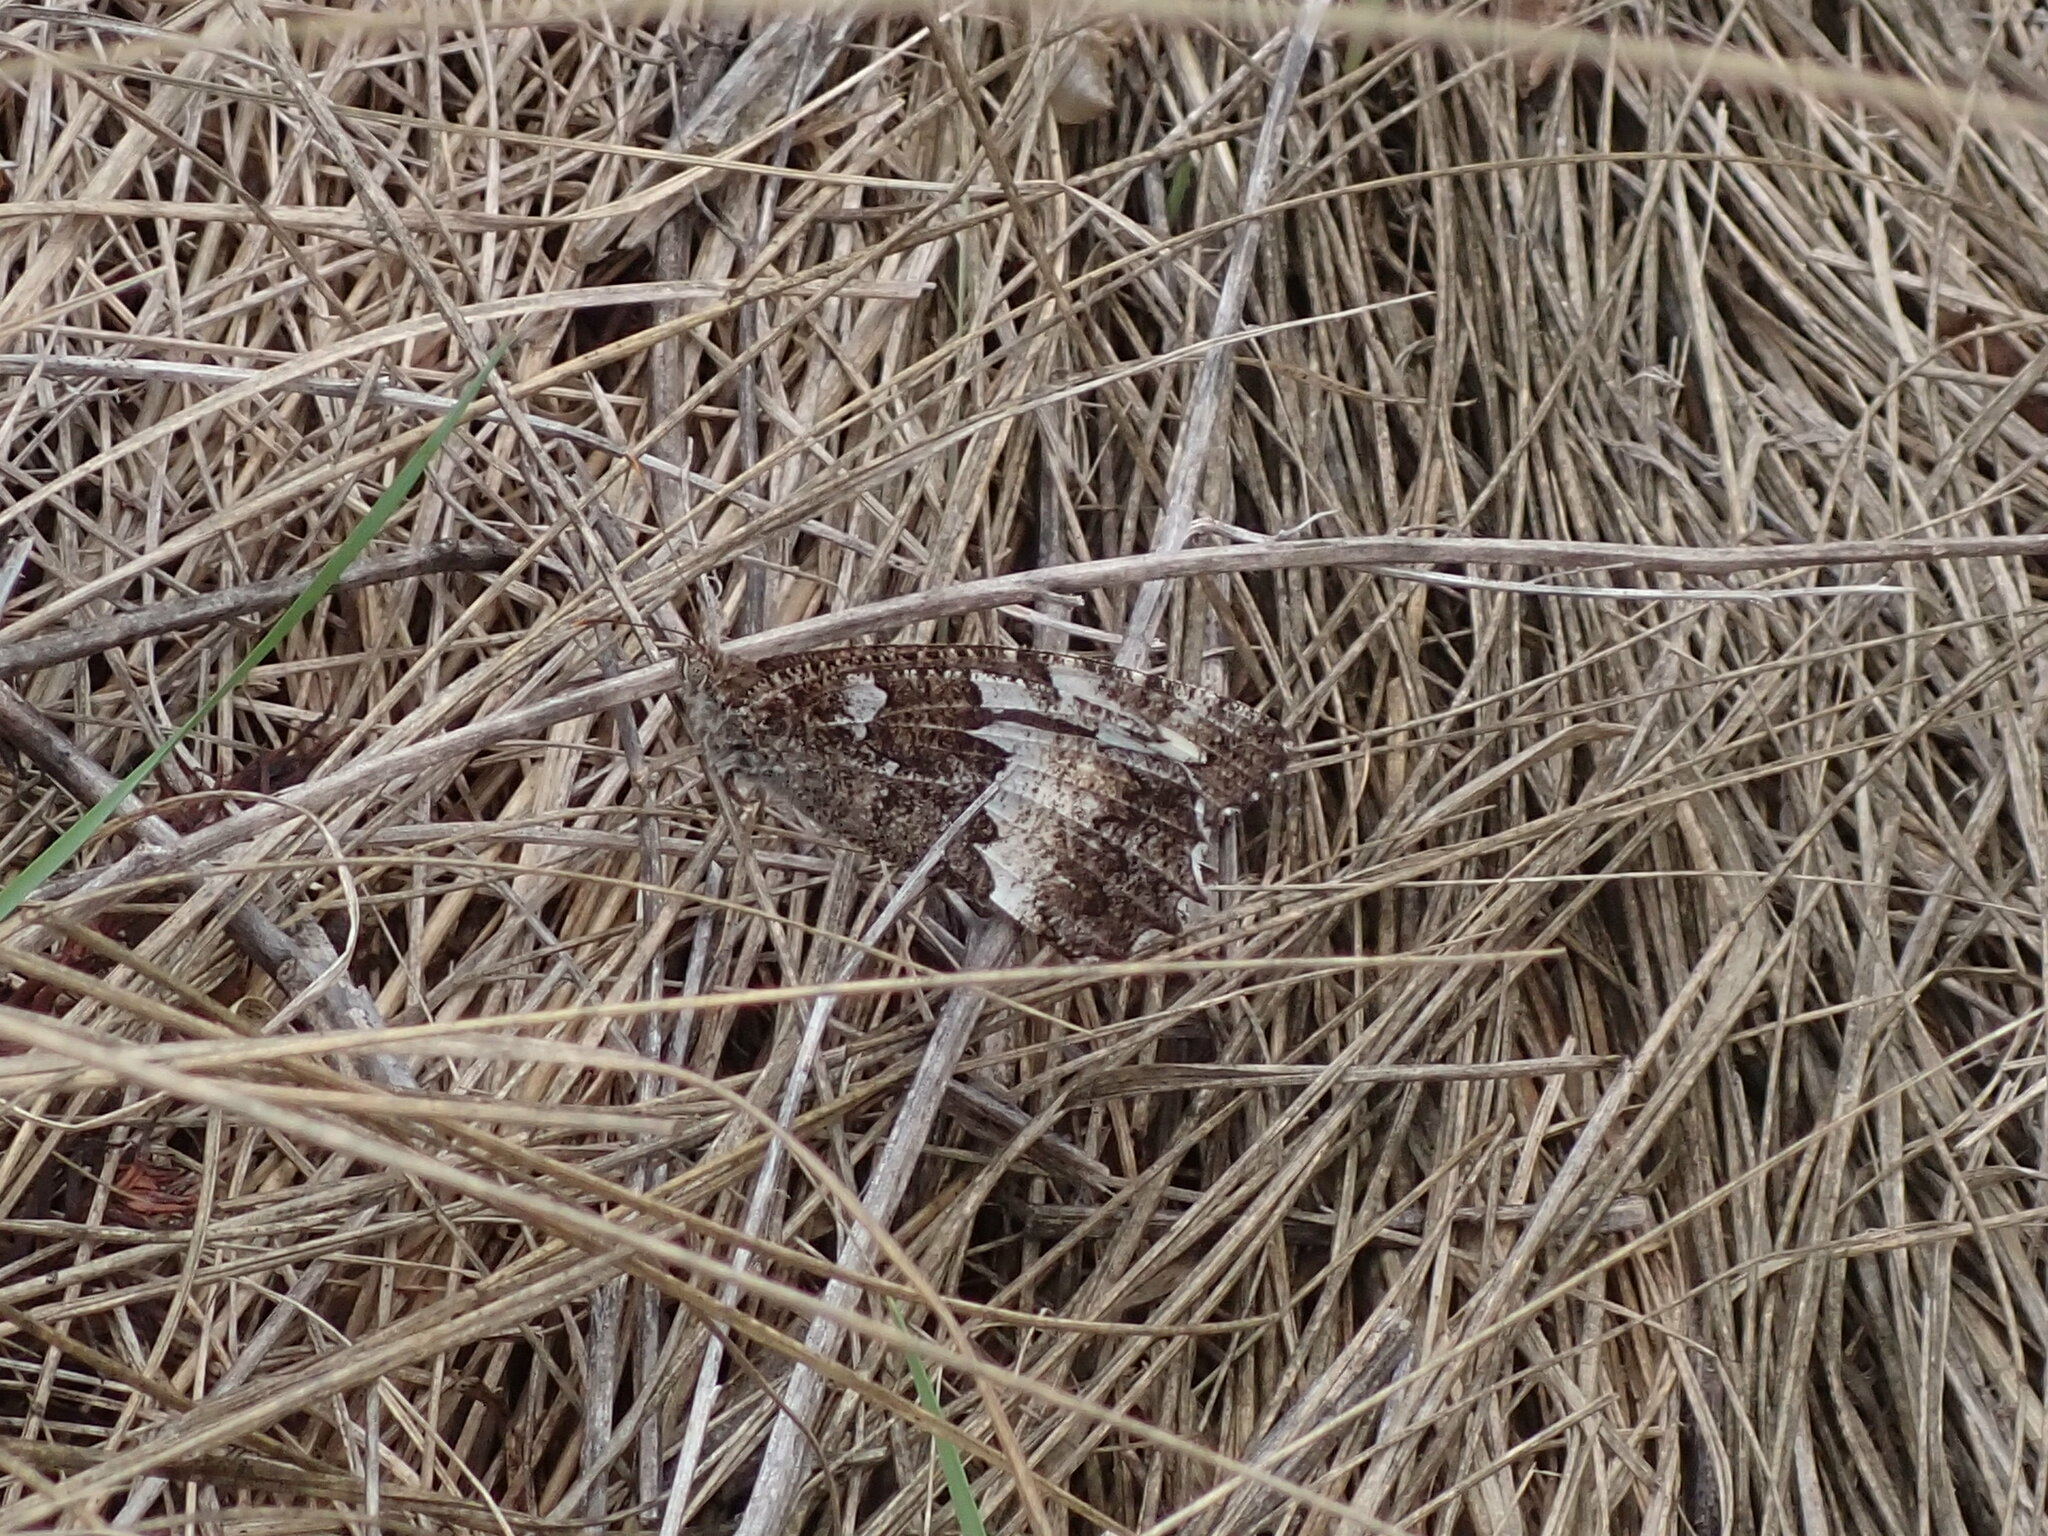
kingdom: Animalia
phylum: Arthropoda
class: Insecta
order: Lepidoptera
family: Lycaenidae
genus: Loweia
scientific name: Loweia tityrus
